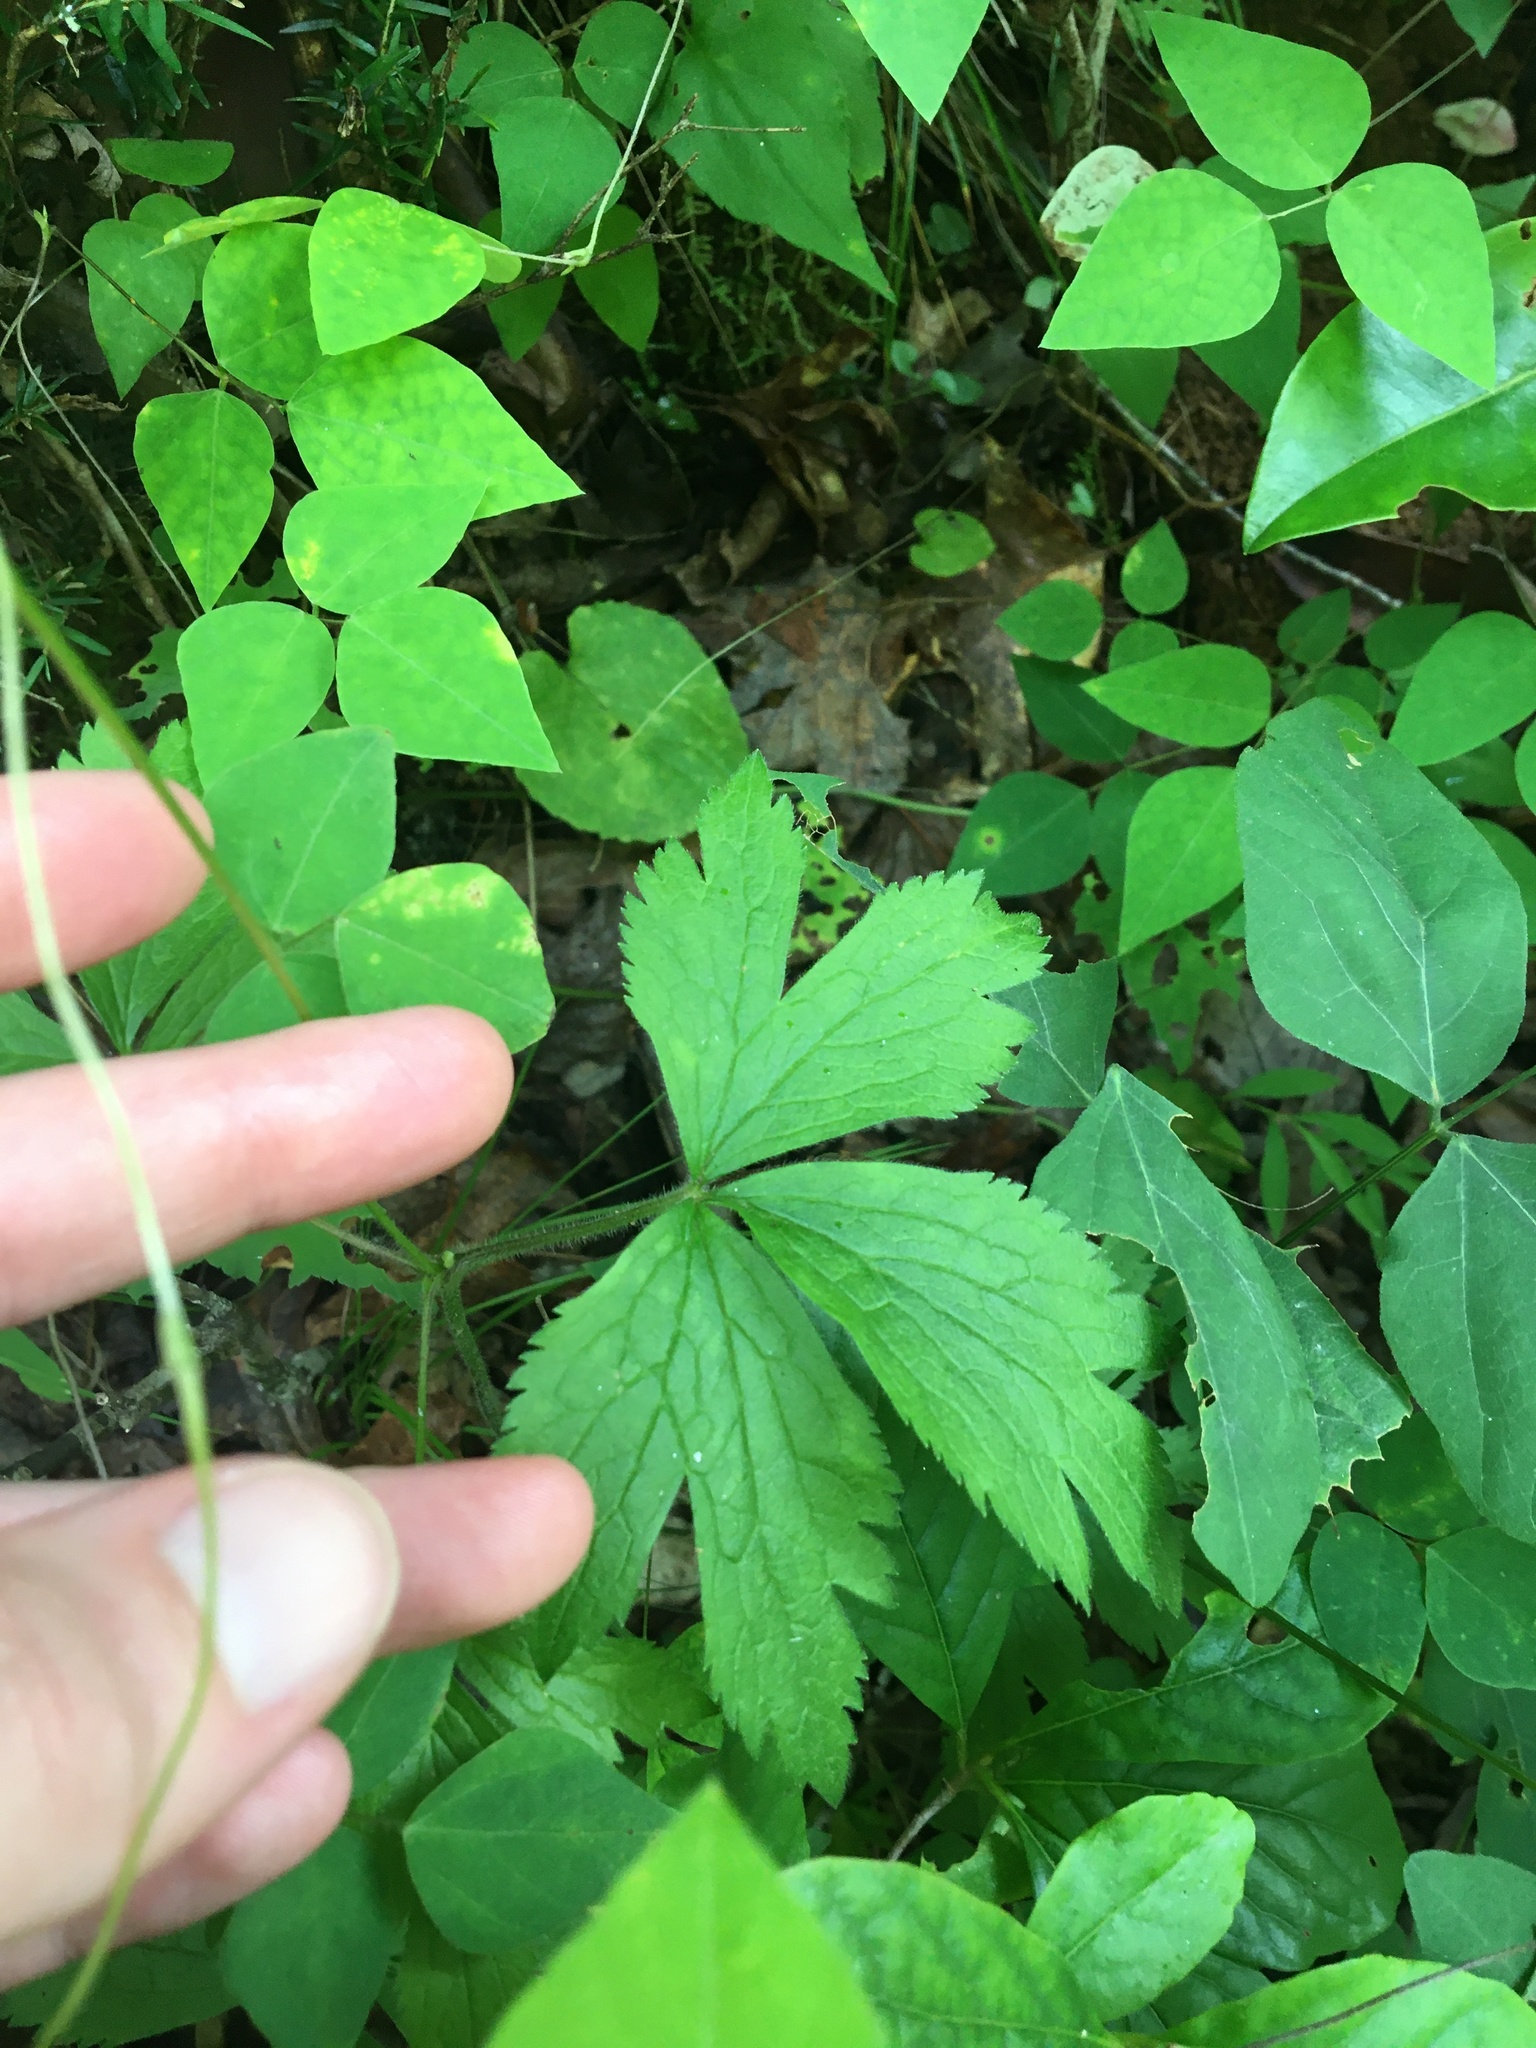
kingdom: Plantae
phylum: Tracheophyta
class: Magnoliopsida
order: Ranunculales
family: Ranunculaceae
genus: Anemone
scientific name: Anemone virginiana
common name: Tall anemone
